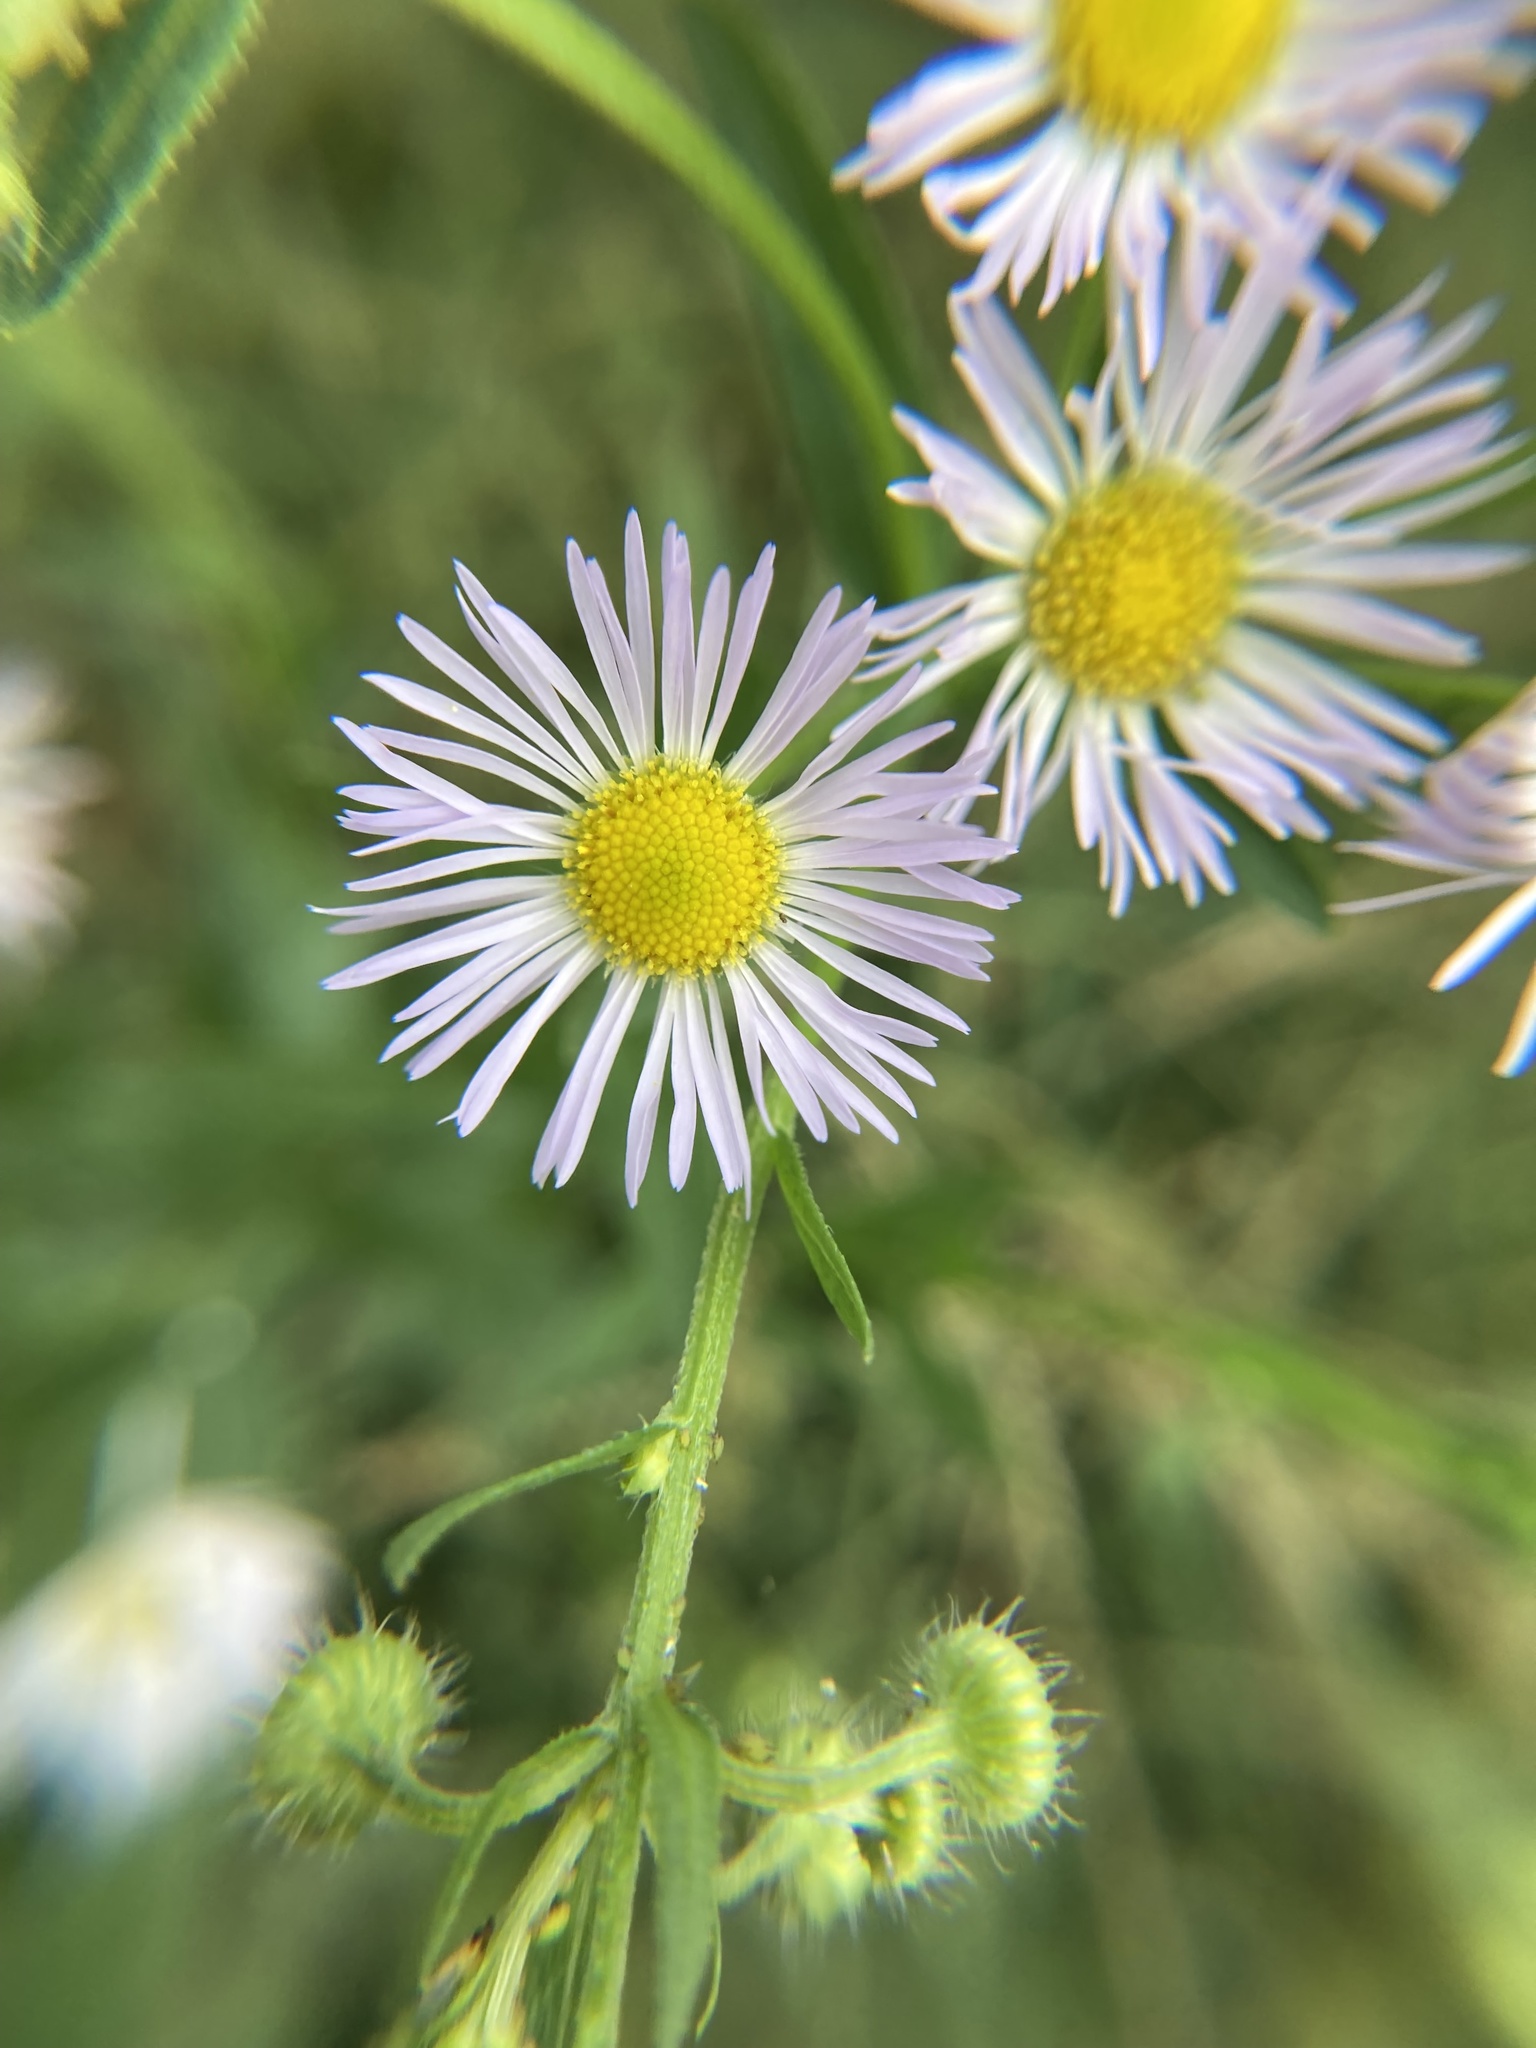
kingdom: Plantae
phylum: Tracheophyta
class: Magnoliopsida
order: Asterales
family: Asteraceae
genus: Erigeron
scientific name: Erigeron annuus
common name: Tall fleabane
